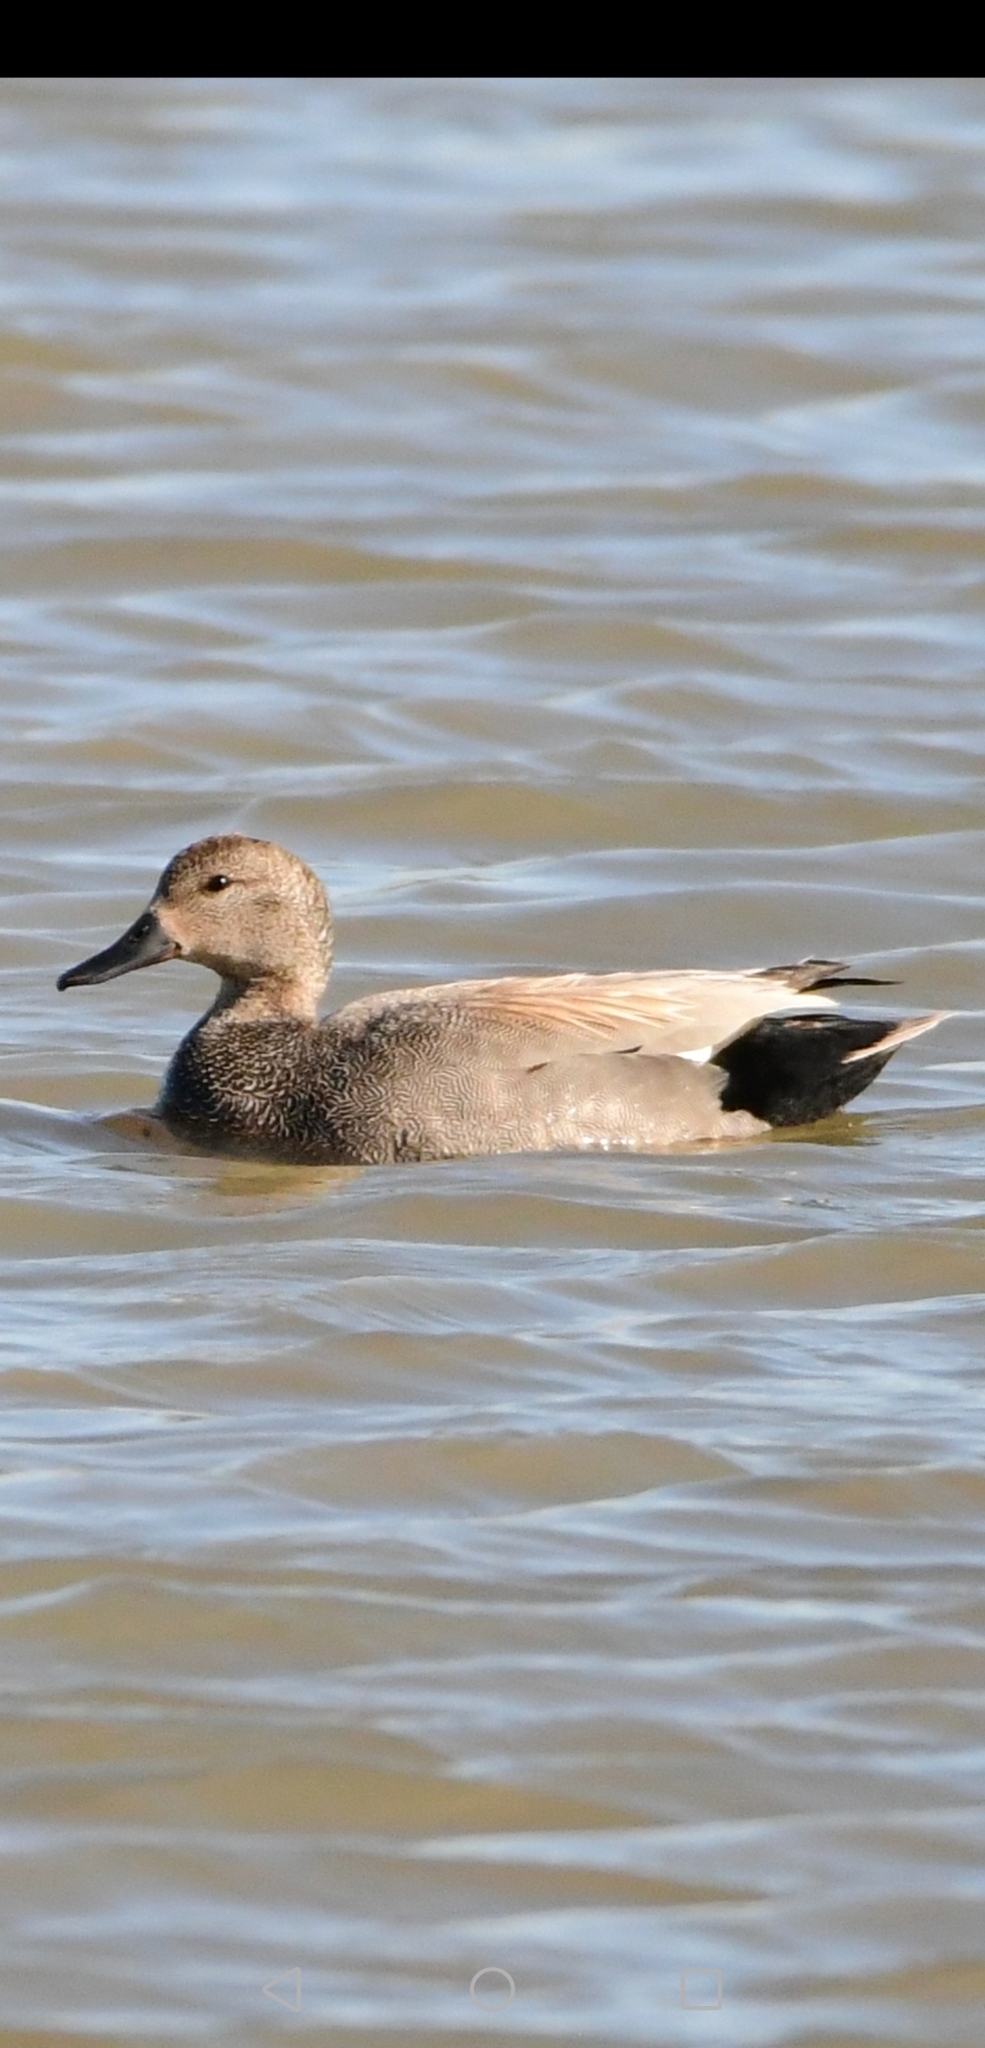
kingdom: Animalia
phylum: Chordata
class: Aves
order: Anseriformes
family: Anatidae
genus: Mareca
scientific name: Mareca strepera
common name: Gadwall
